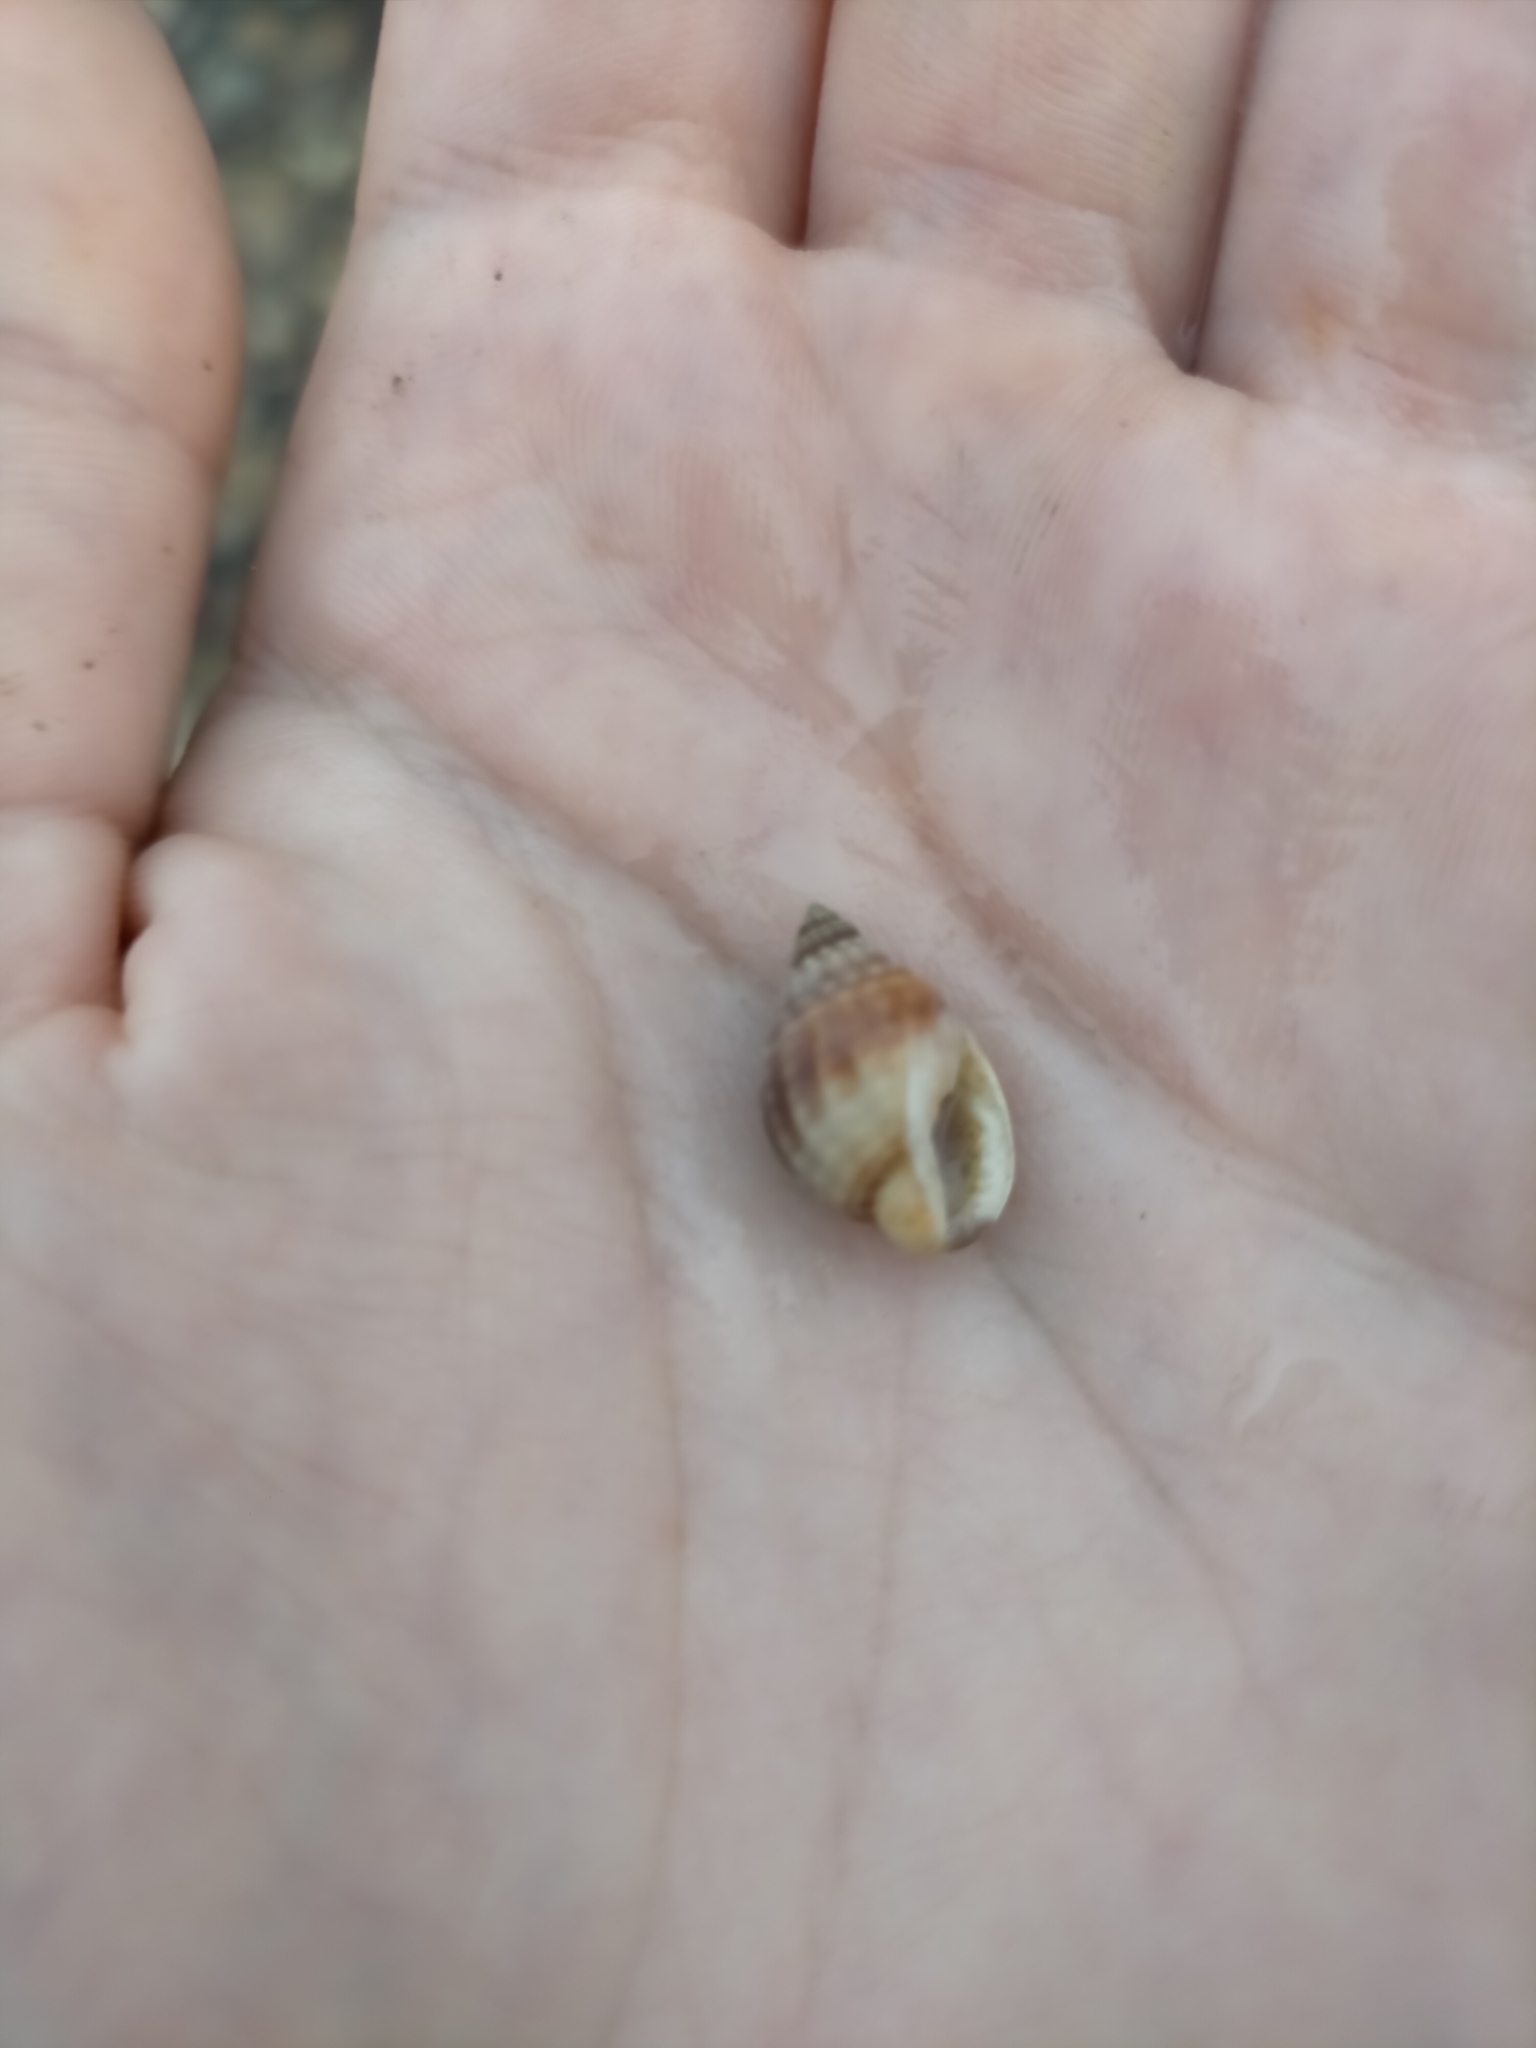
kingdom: Animalia
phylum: Mollusca
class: Gastropoda
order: Neogastropoda
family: Nassariidae
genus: Nassarius
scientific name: Nassarius pauperatus
